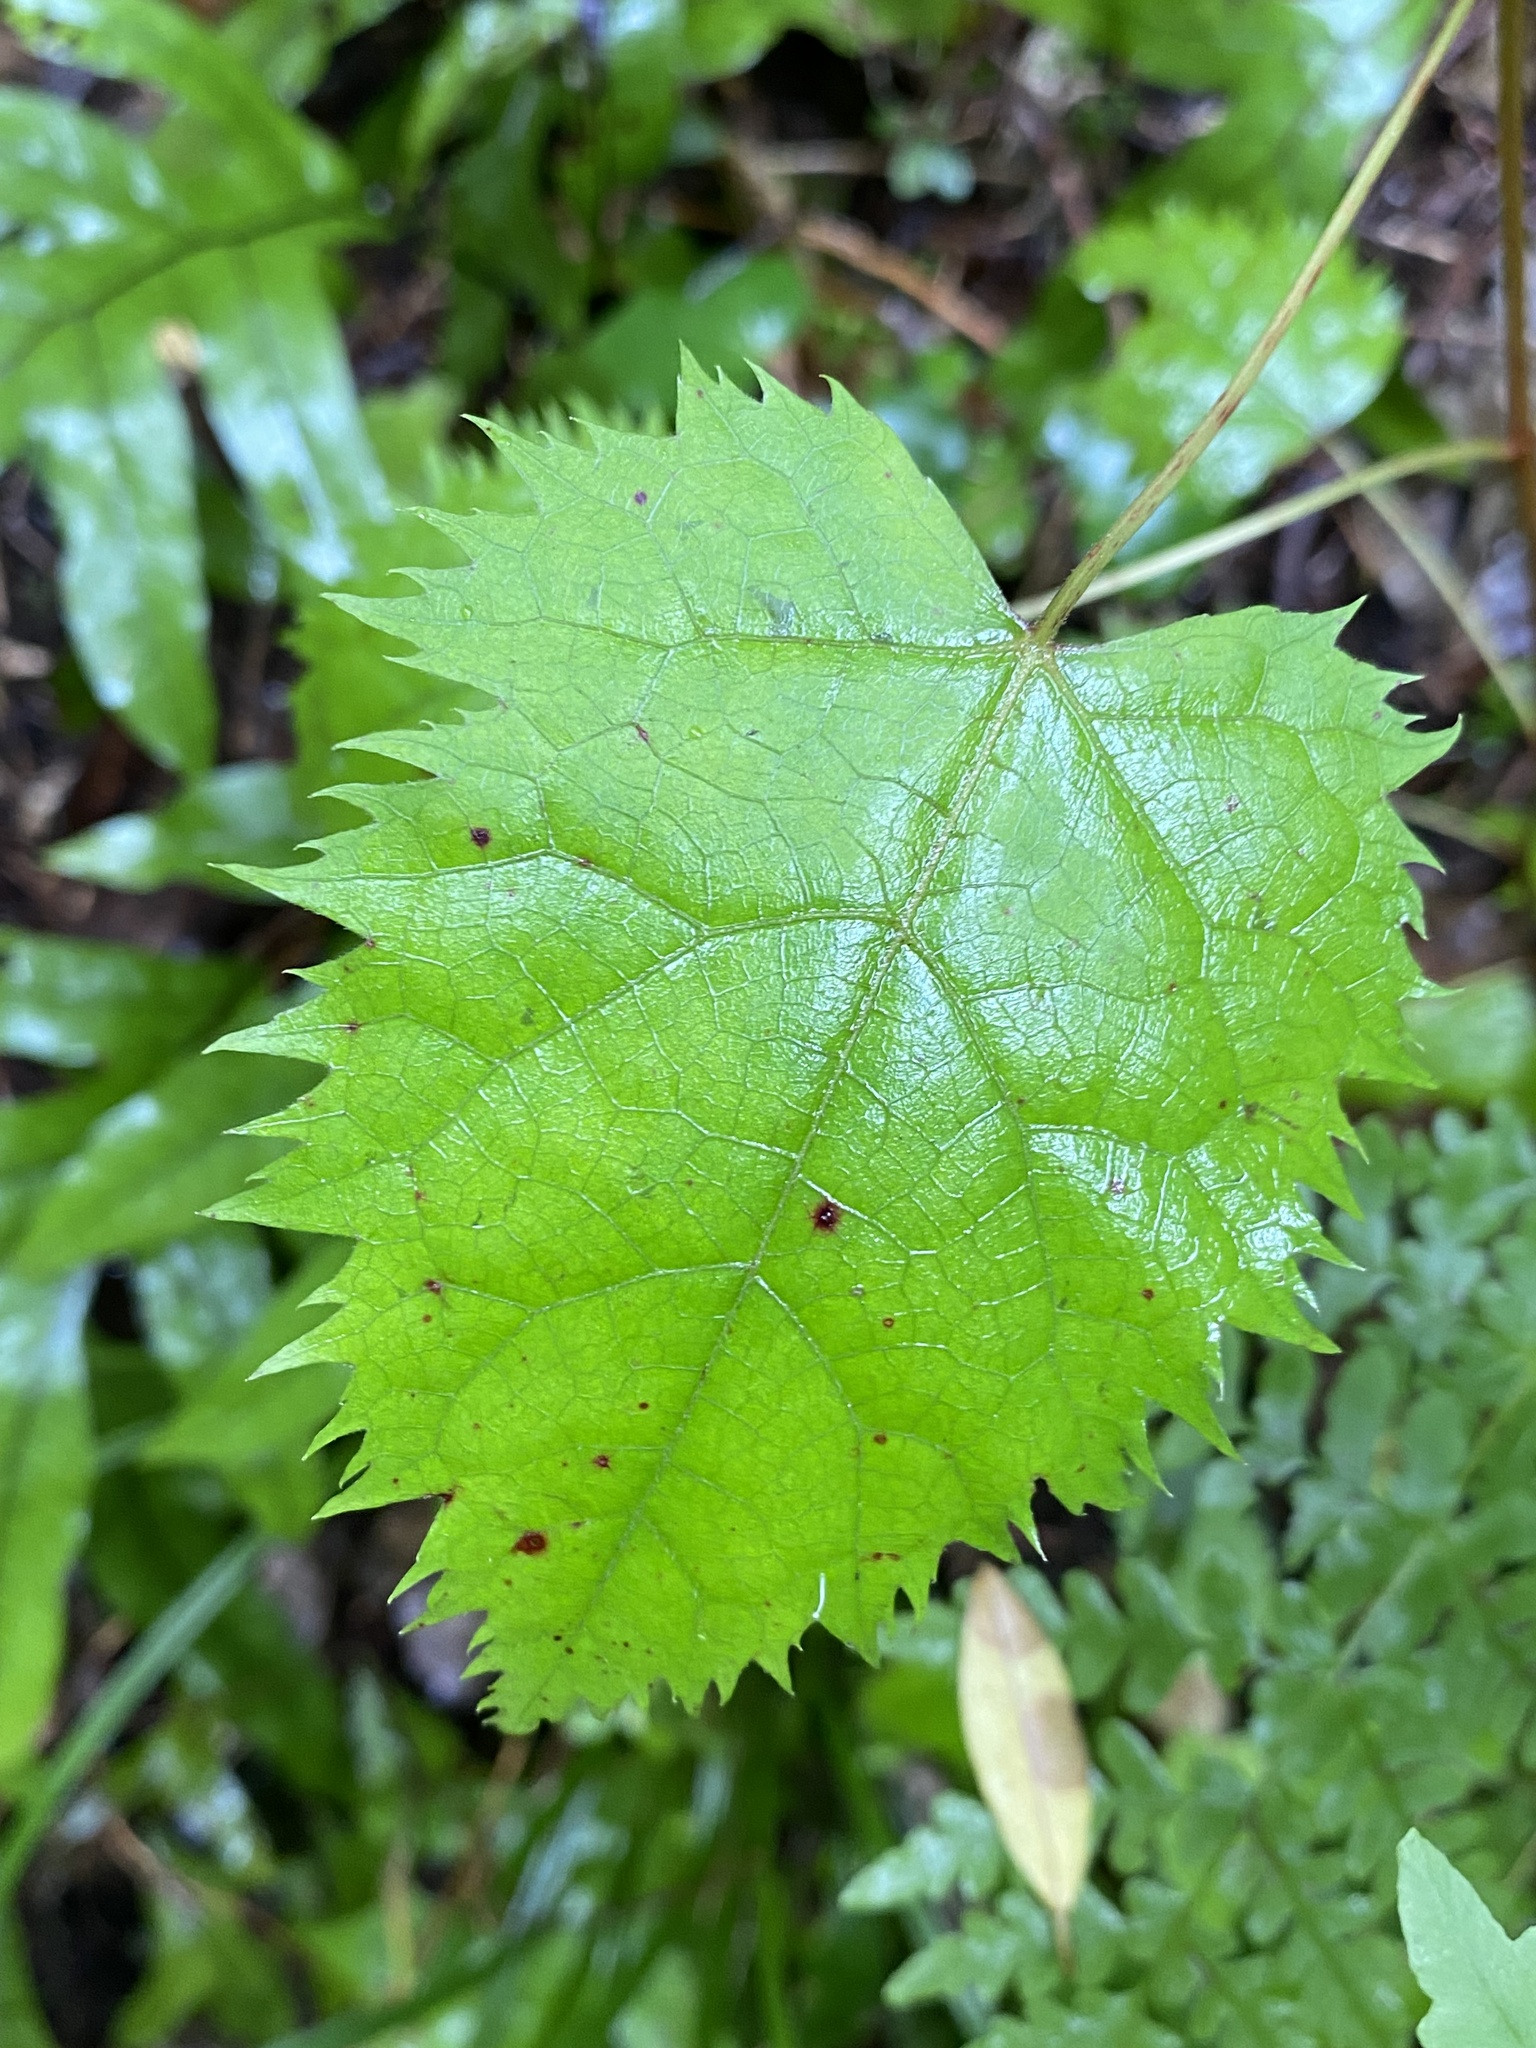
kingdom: Plantae
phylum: Tracheophyta
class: Magnoliopsida
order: Oxalidales
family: Elaeocarpaceae
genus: Aristotelia
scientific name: Aristotelia serrata
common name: New zealand wineberry
